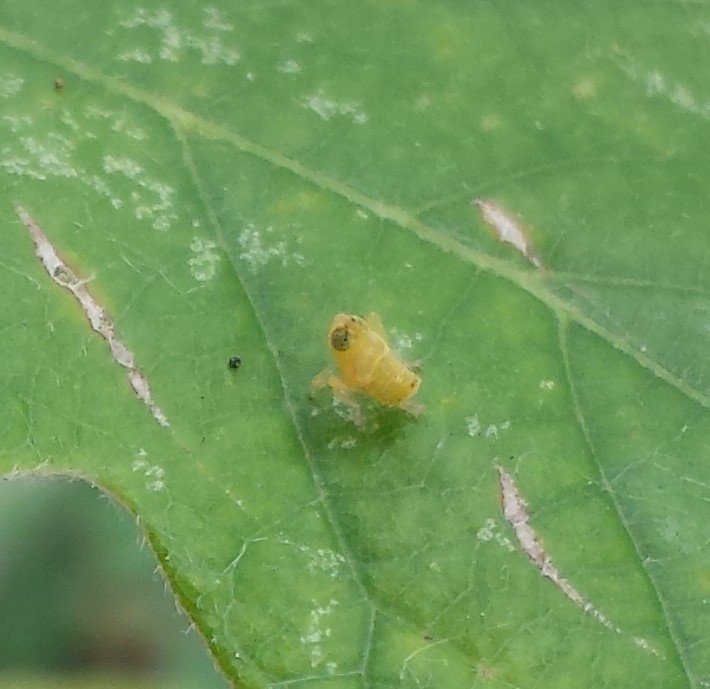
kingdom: Animalia
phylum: Arthropoda
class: Insecta
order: Hemiptera
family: Cicadellidae
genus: Jikradia
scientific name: Jikradia olitoria
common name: Coppery leafhopper
